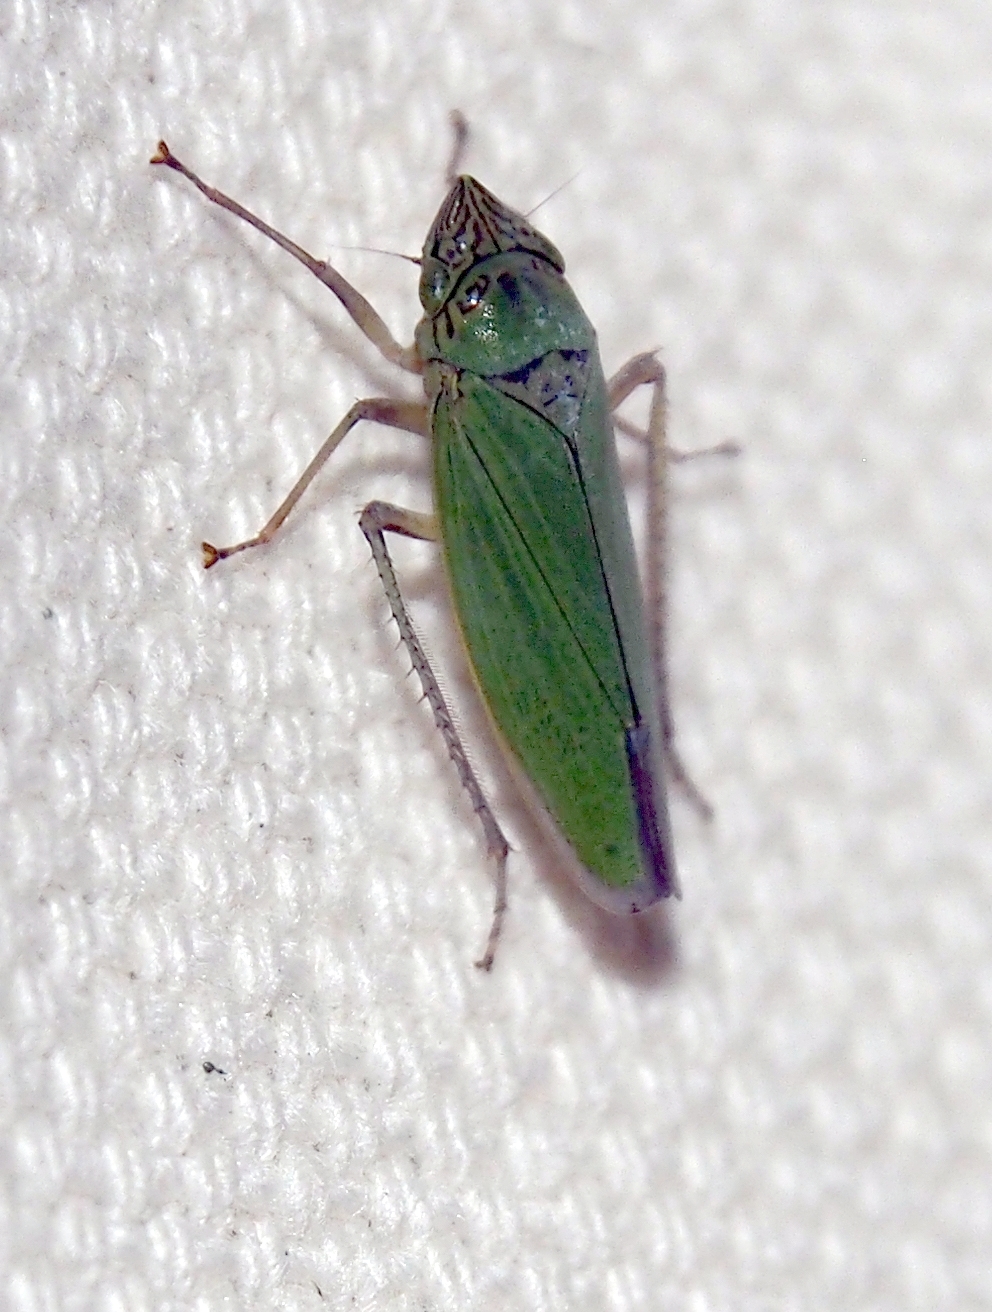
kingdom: Animalia
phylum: Arthropoda
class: Insecta
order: Hemiptera
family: Cicadellidae
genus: Draeculacephala
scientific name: Draeculacephala inscripta
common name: Leafhopper
